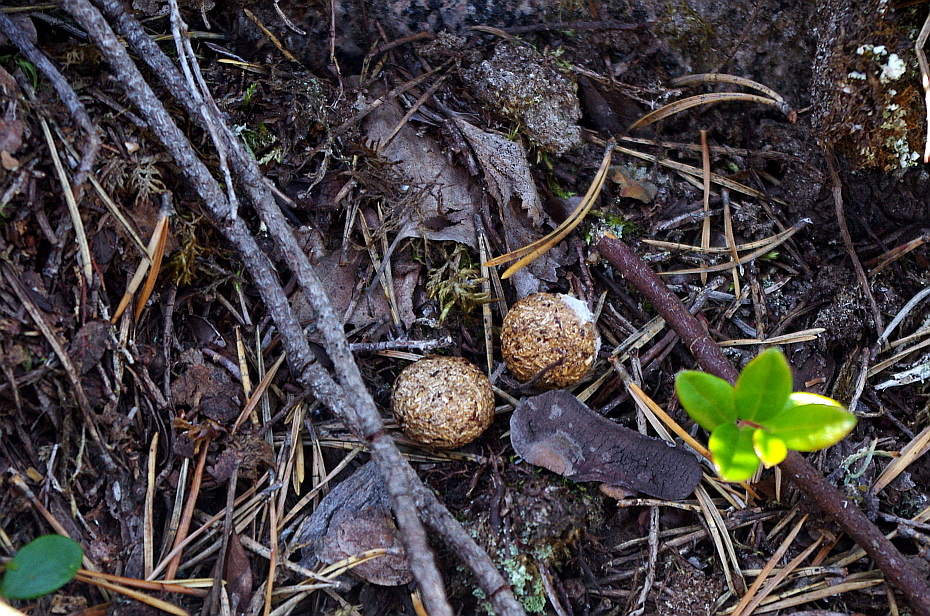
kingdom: Animalia
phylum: Chordata
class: Mammalia
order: Lagomorpha
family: Leporidae
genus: Lepus
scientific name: Lepus timidus
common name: Mountain hare
